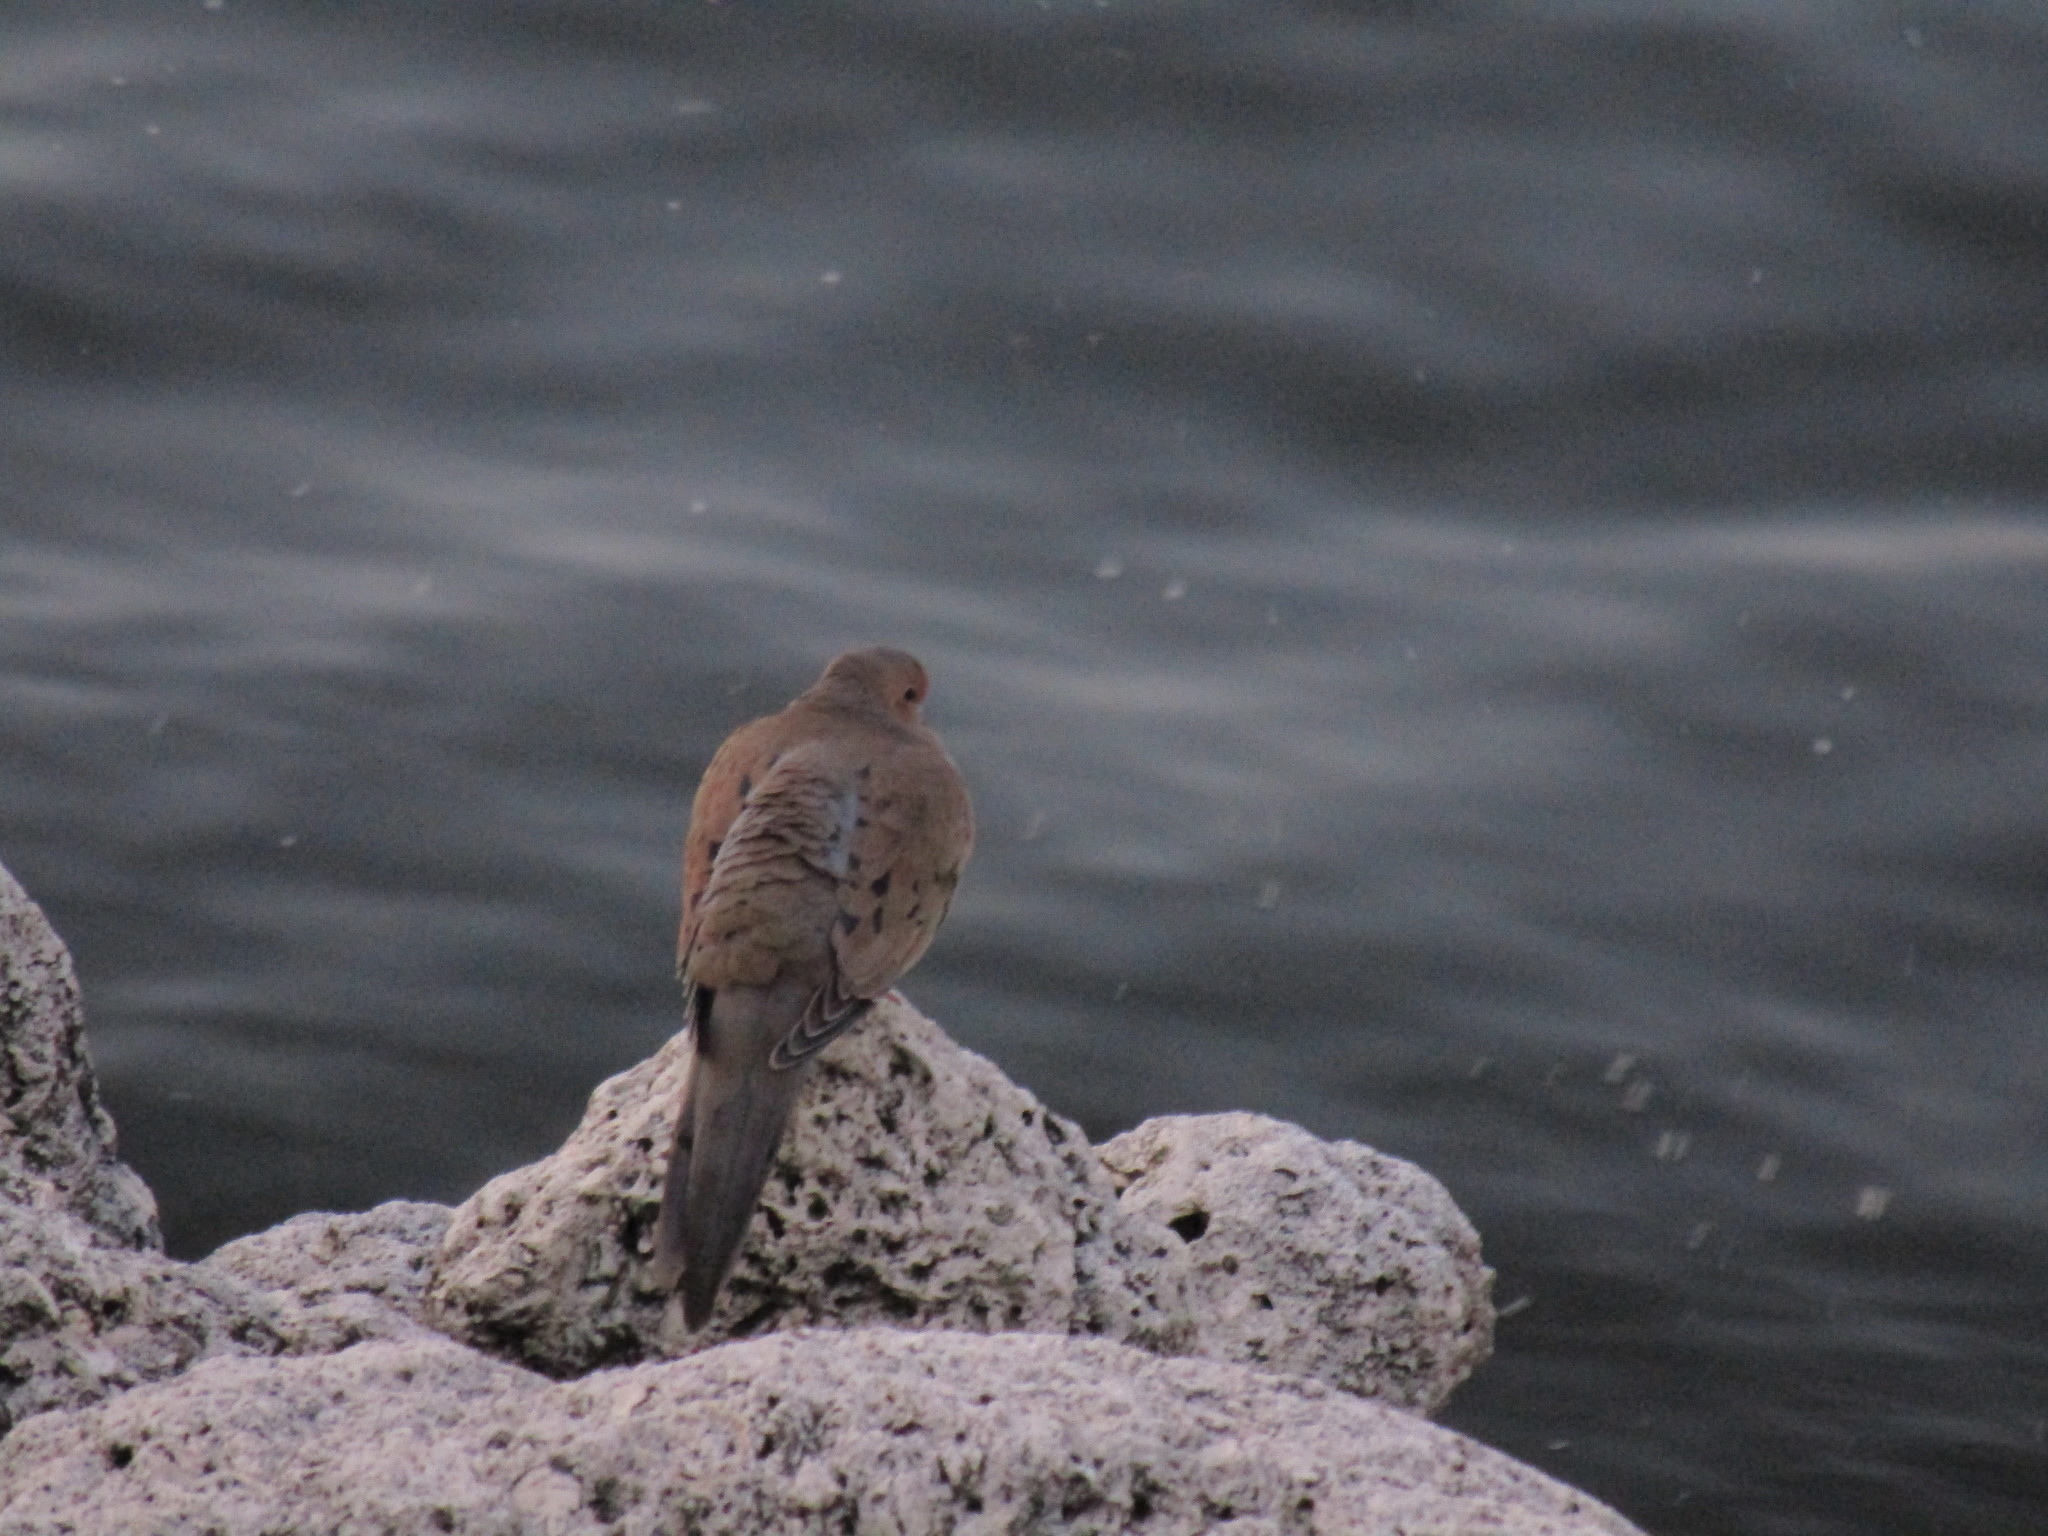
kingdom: Animalia
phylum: Chordata
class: Aves
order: Columbiformes
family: Columbidae
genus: Zenaida
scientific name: Zenaida macroura
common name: Mourning dove
